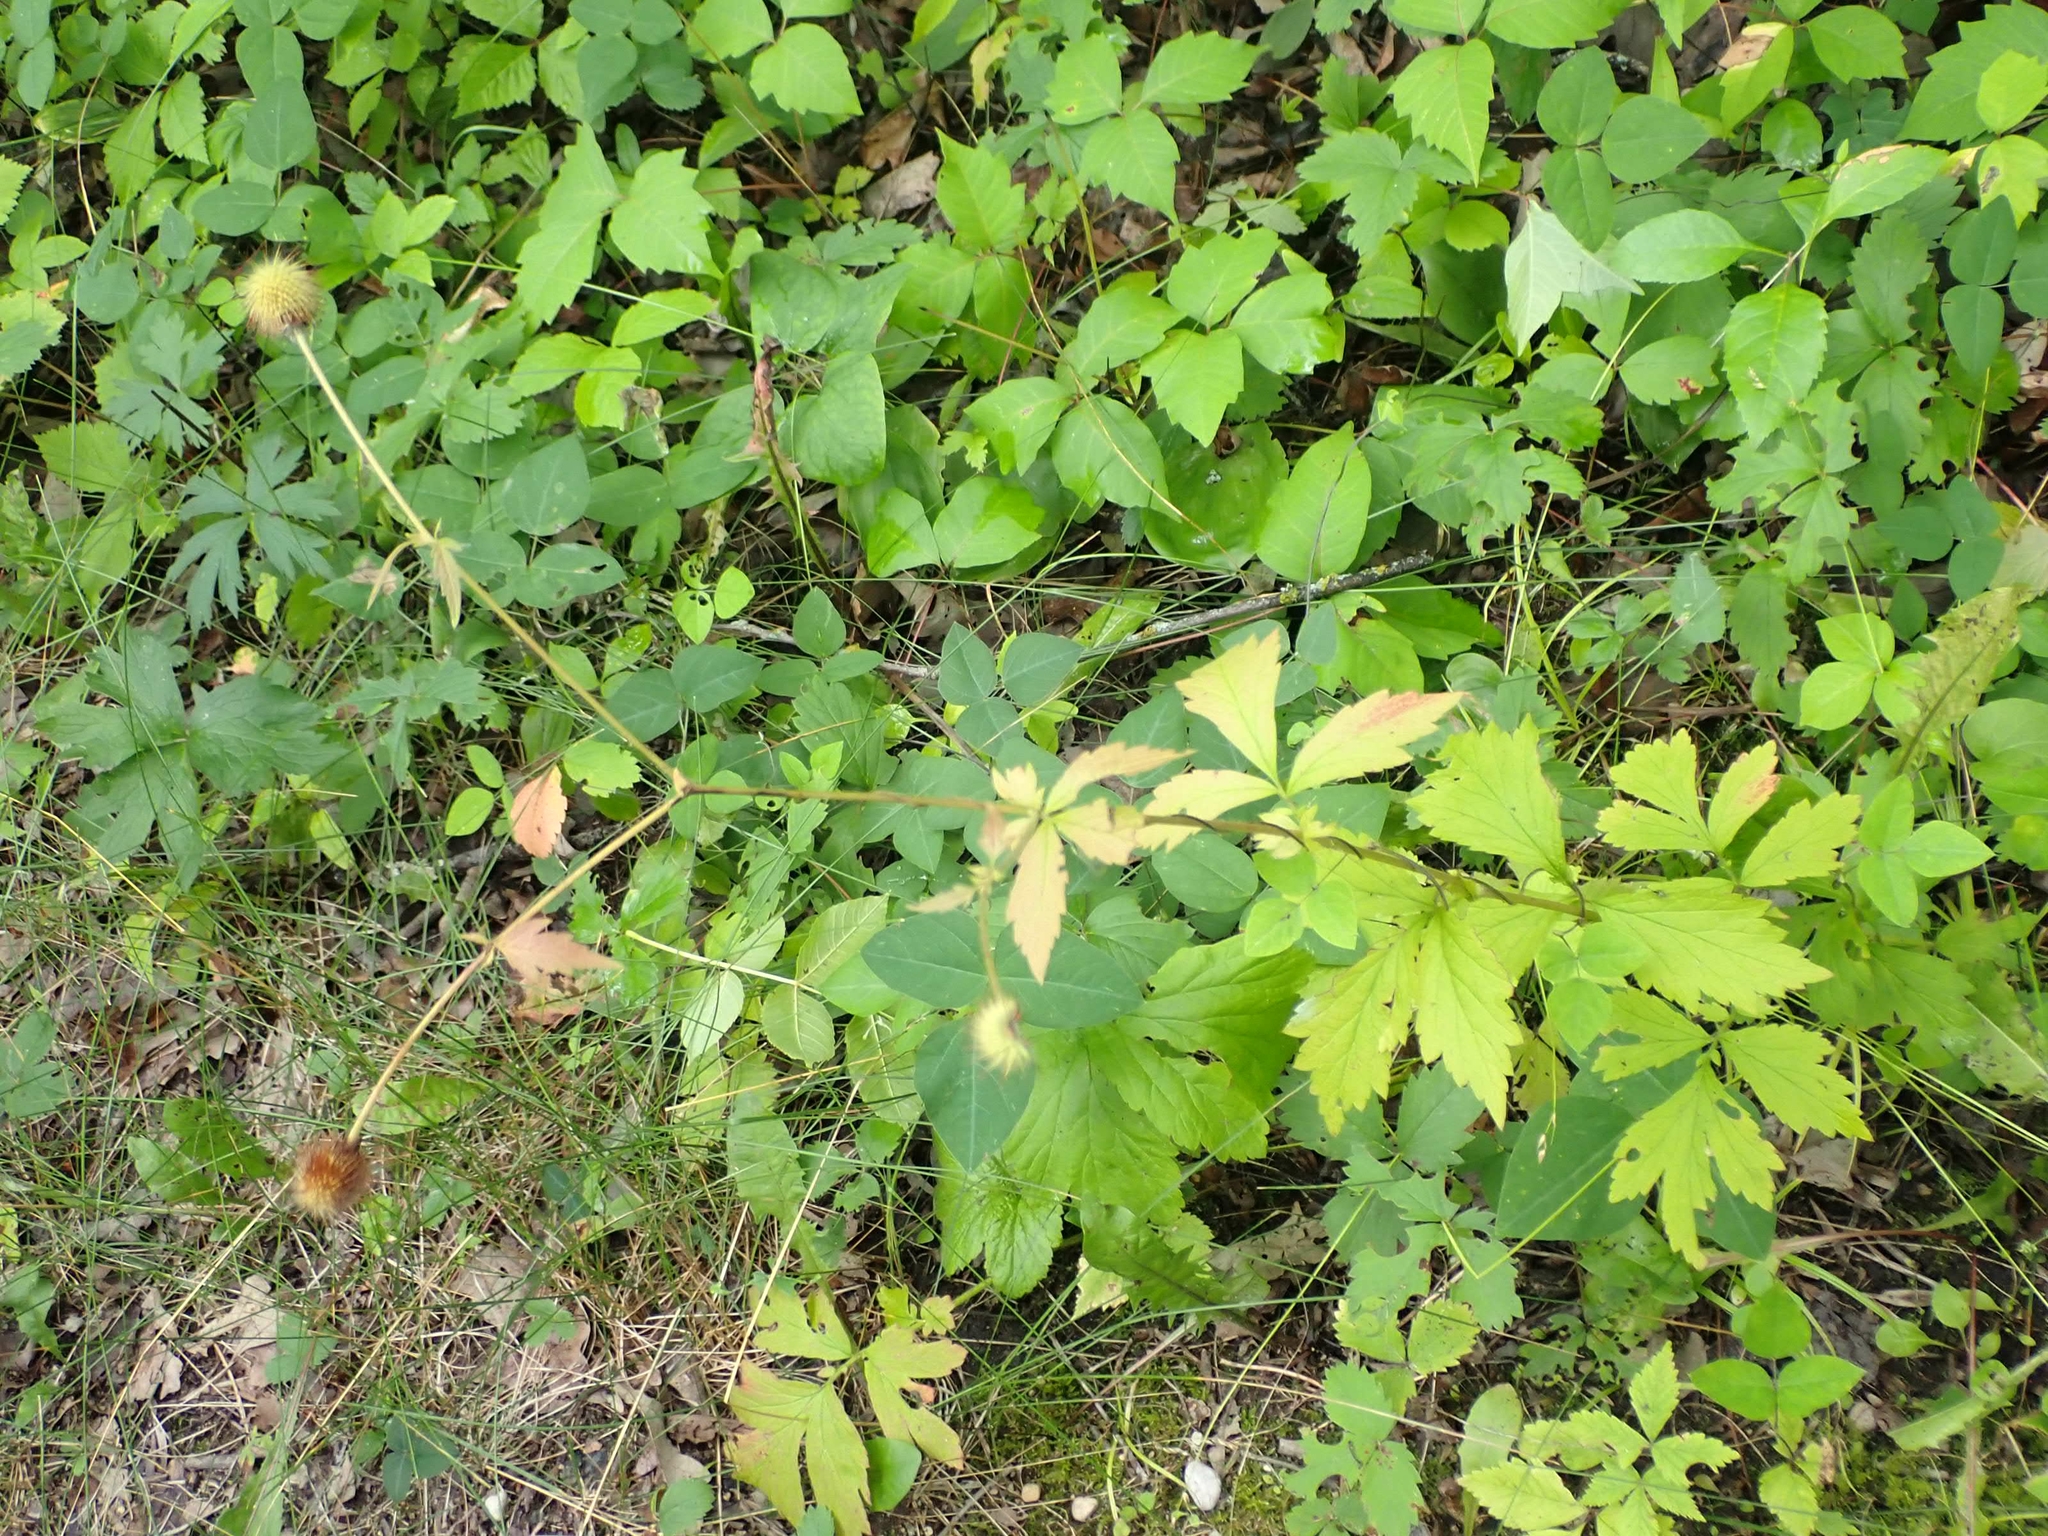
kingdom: Plantae
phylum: Tracheophyta
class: Magnoliopsida
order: Rosales
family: Rosaceae
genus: Geum
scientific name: Geum aleppicum
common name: Yellow avens
